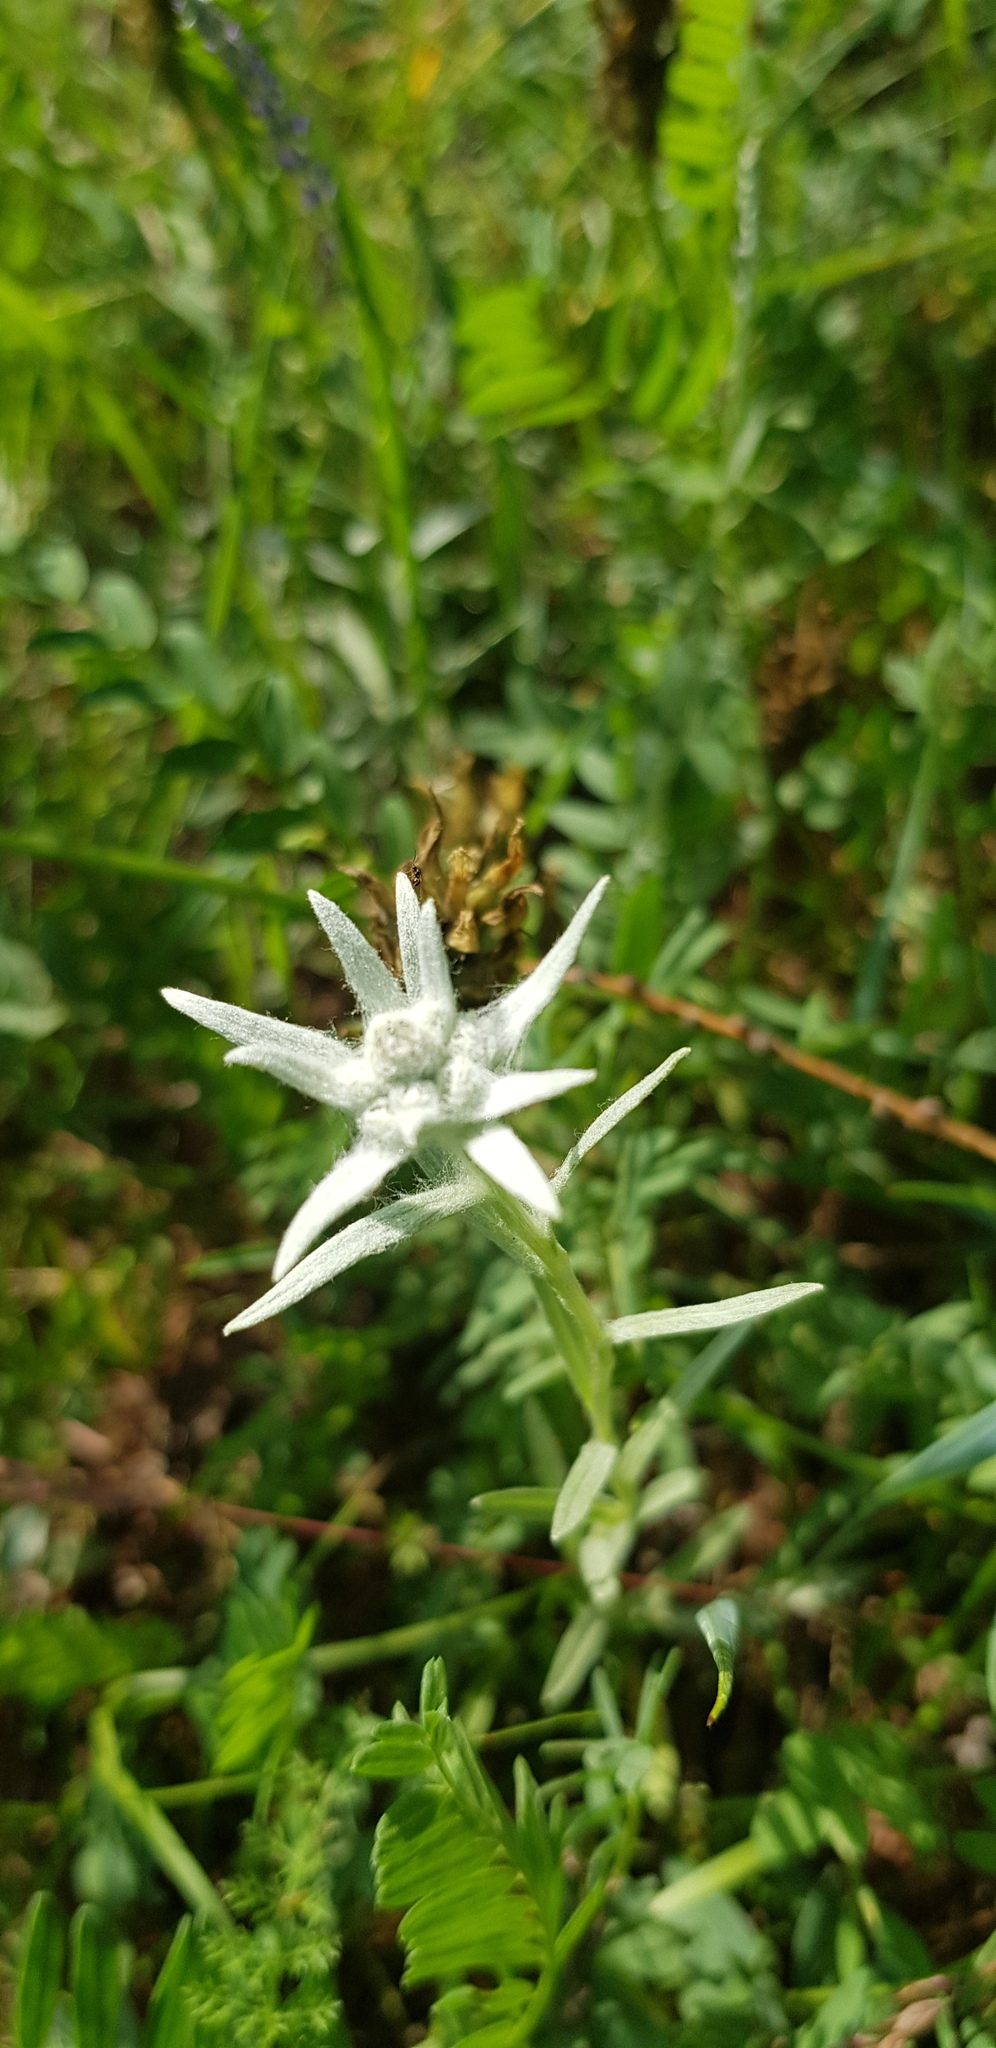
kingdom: Plantae
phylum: Tracheophyta
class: Magnoliopsida
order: Asterales
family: Asteraceae
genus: Leontopodium
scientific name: Leontopodium leontopodinum
